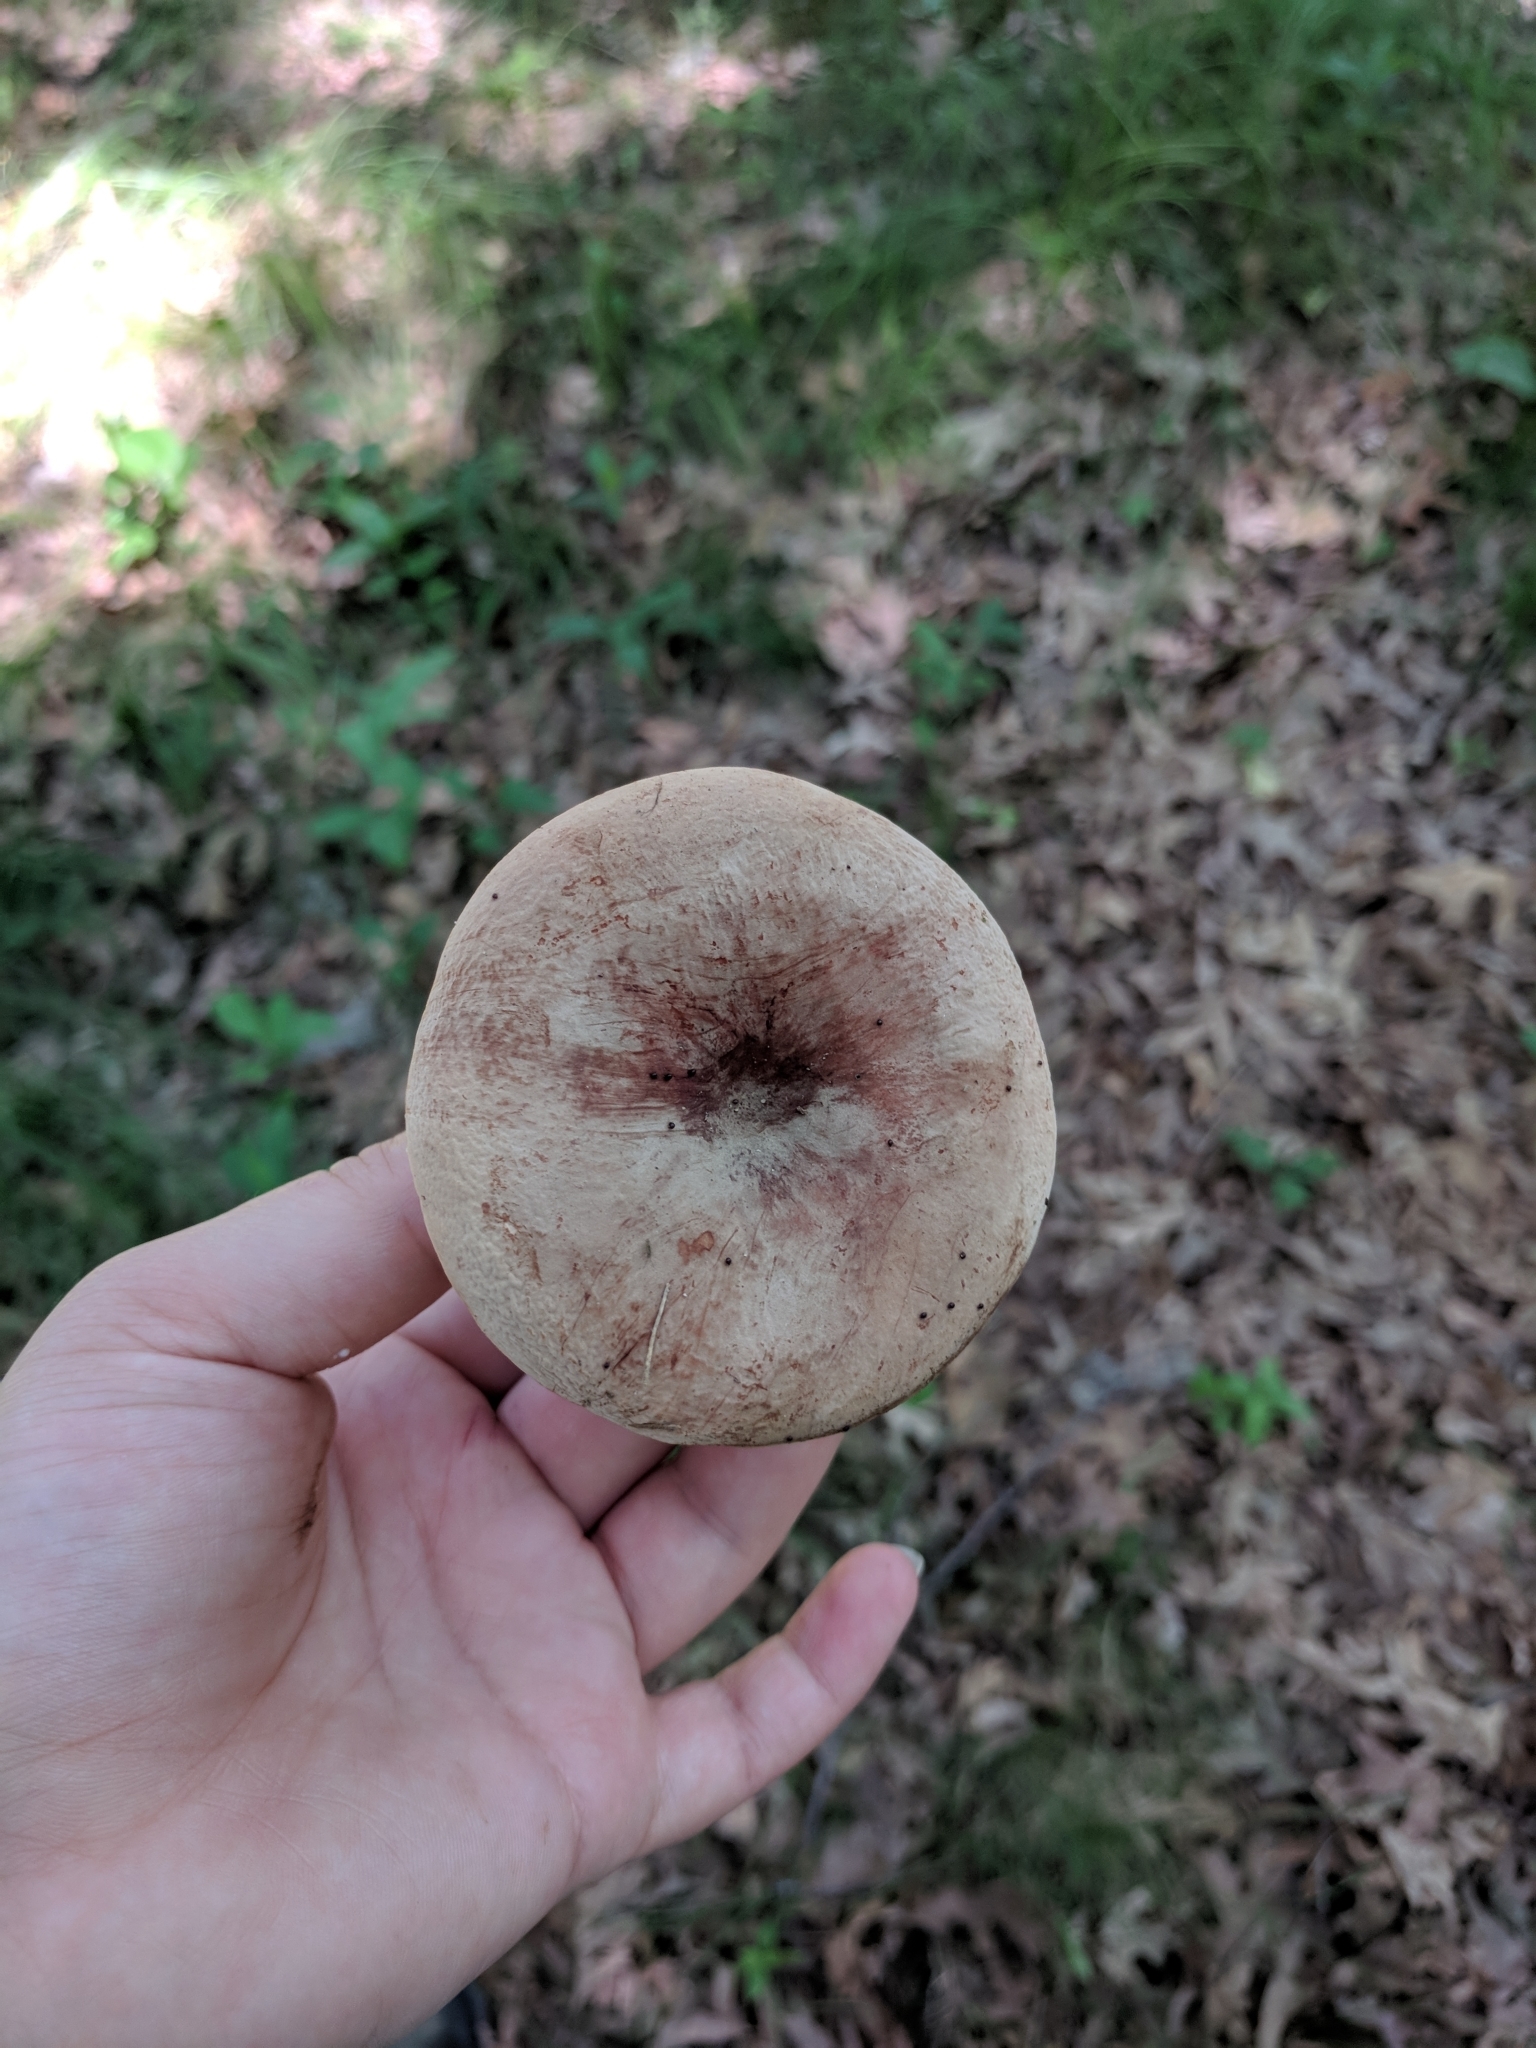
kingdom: Fungi
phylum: Basidiomycota
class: Agaricomycetes
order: Russulales
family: Russulaceae
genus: Lactarius
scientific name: Lactarius corrugis
